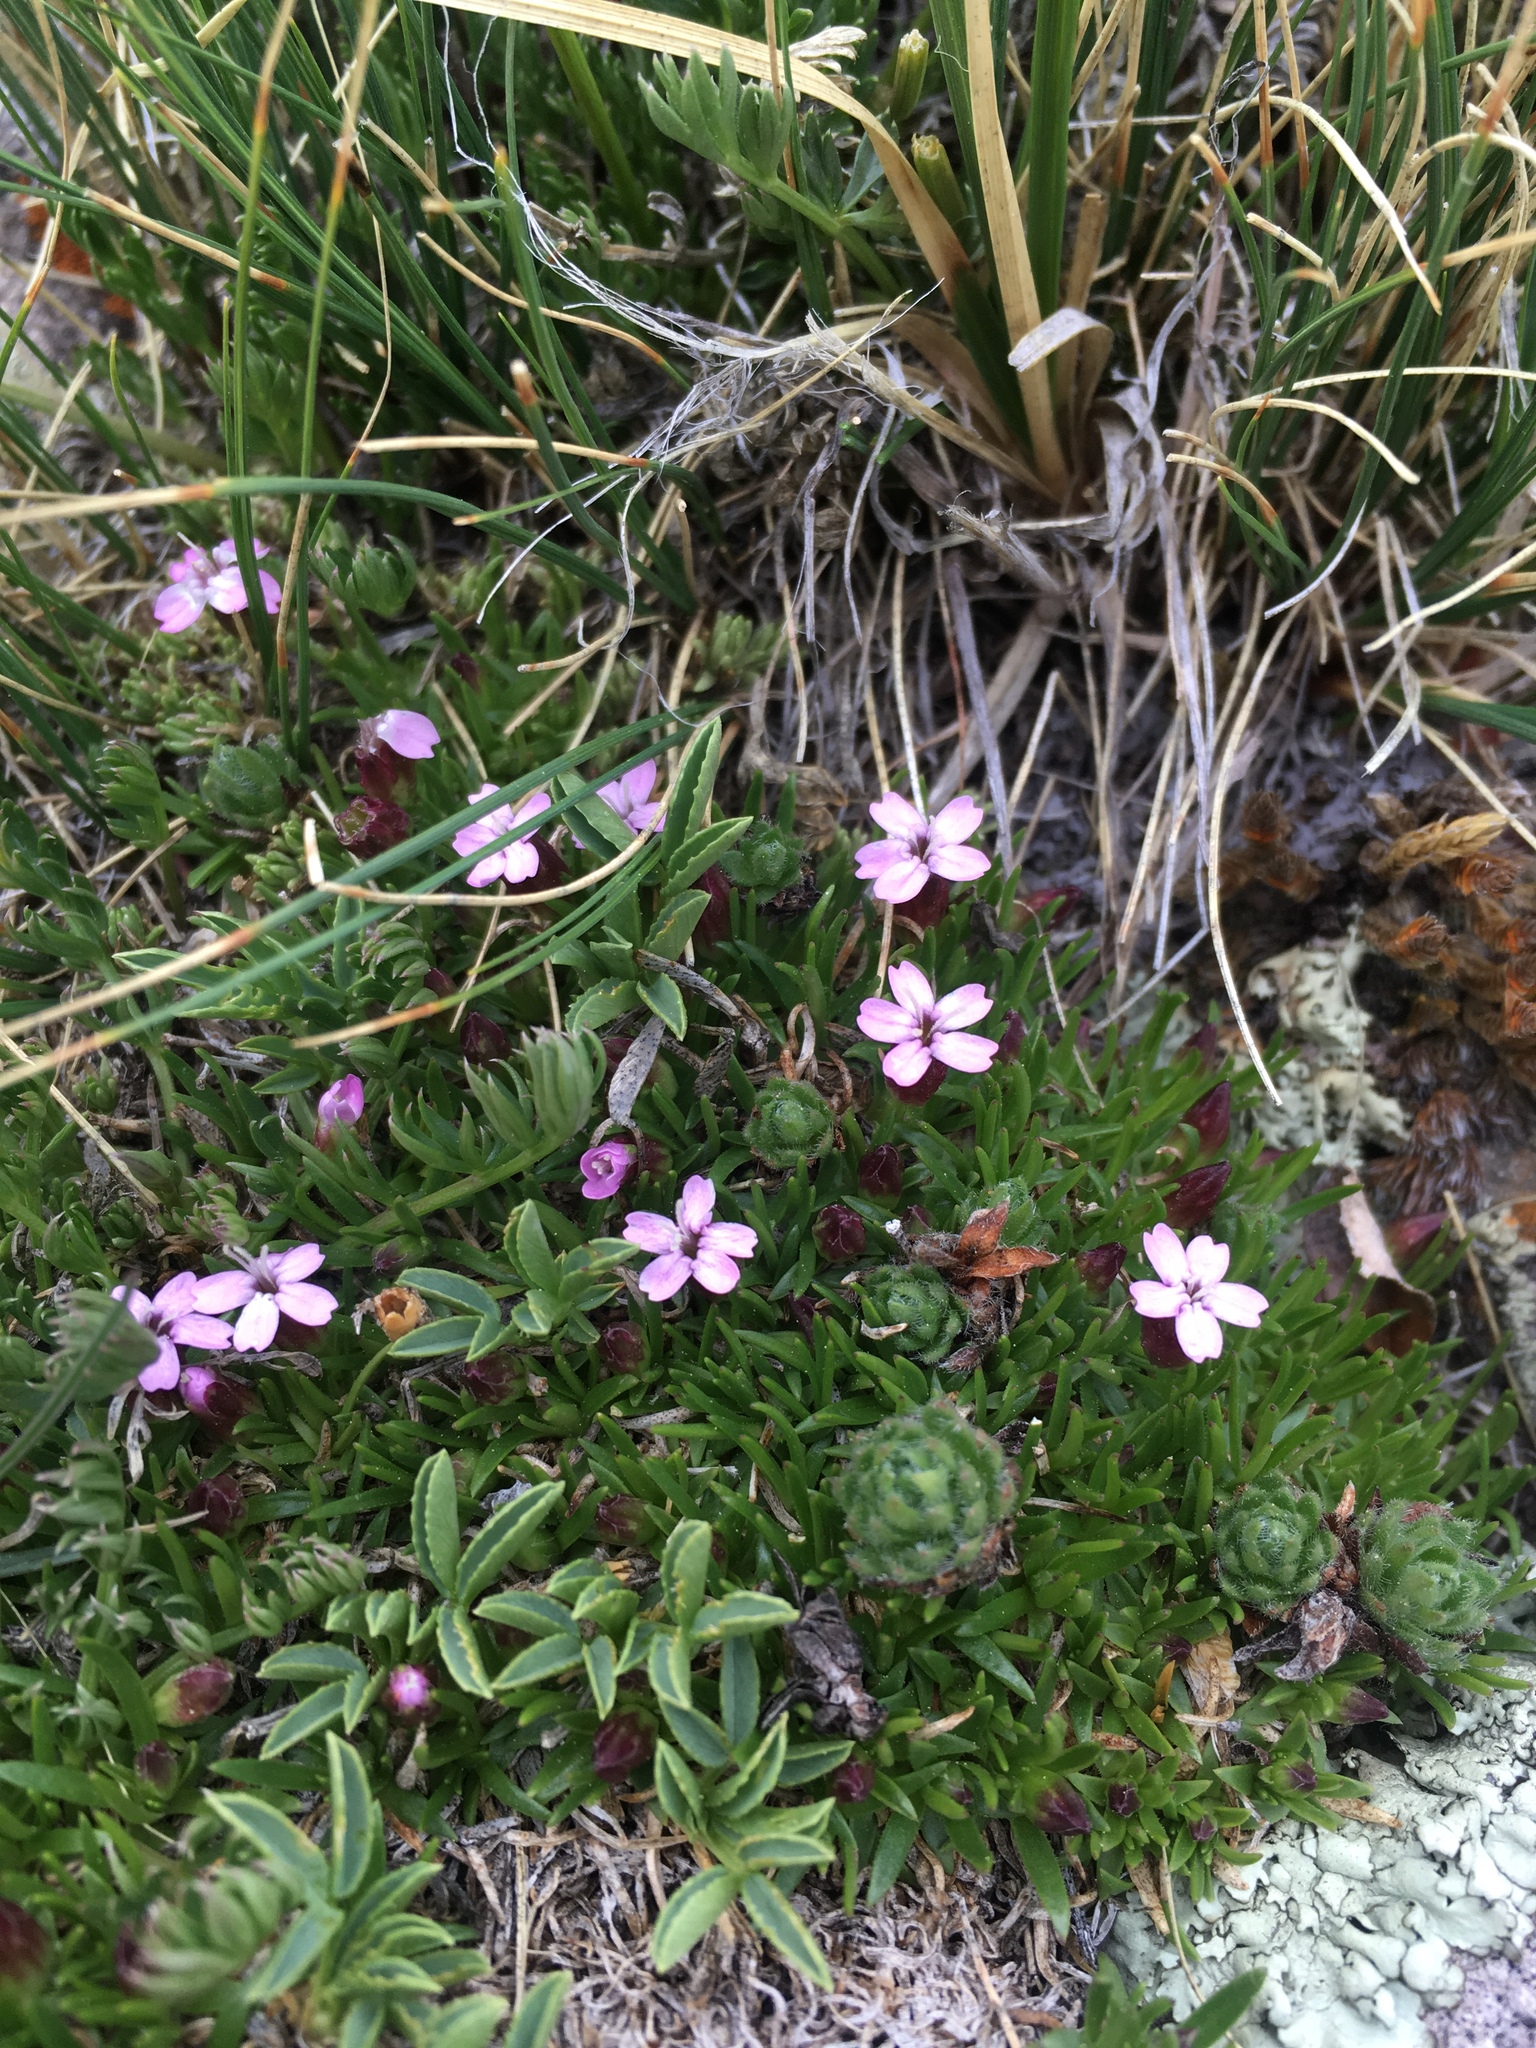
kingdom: Plantae
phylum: Tracheophyta
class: Magnoliopsida
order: Caryophyllales
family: Caryophyllaceae
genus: Silene
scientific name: Silene acaulis
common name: Moss campion
